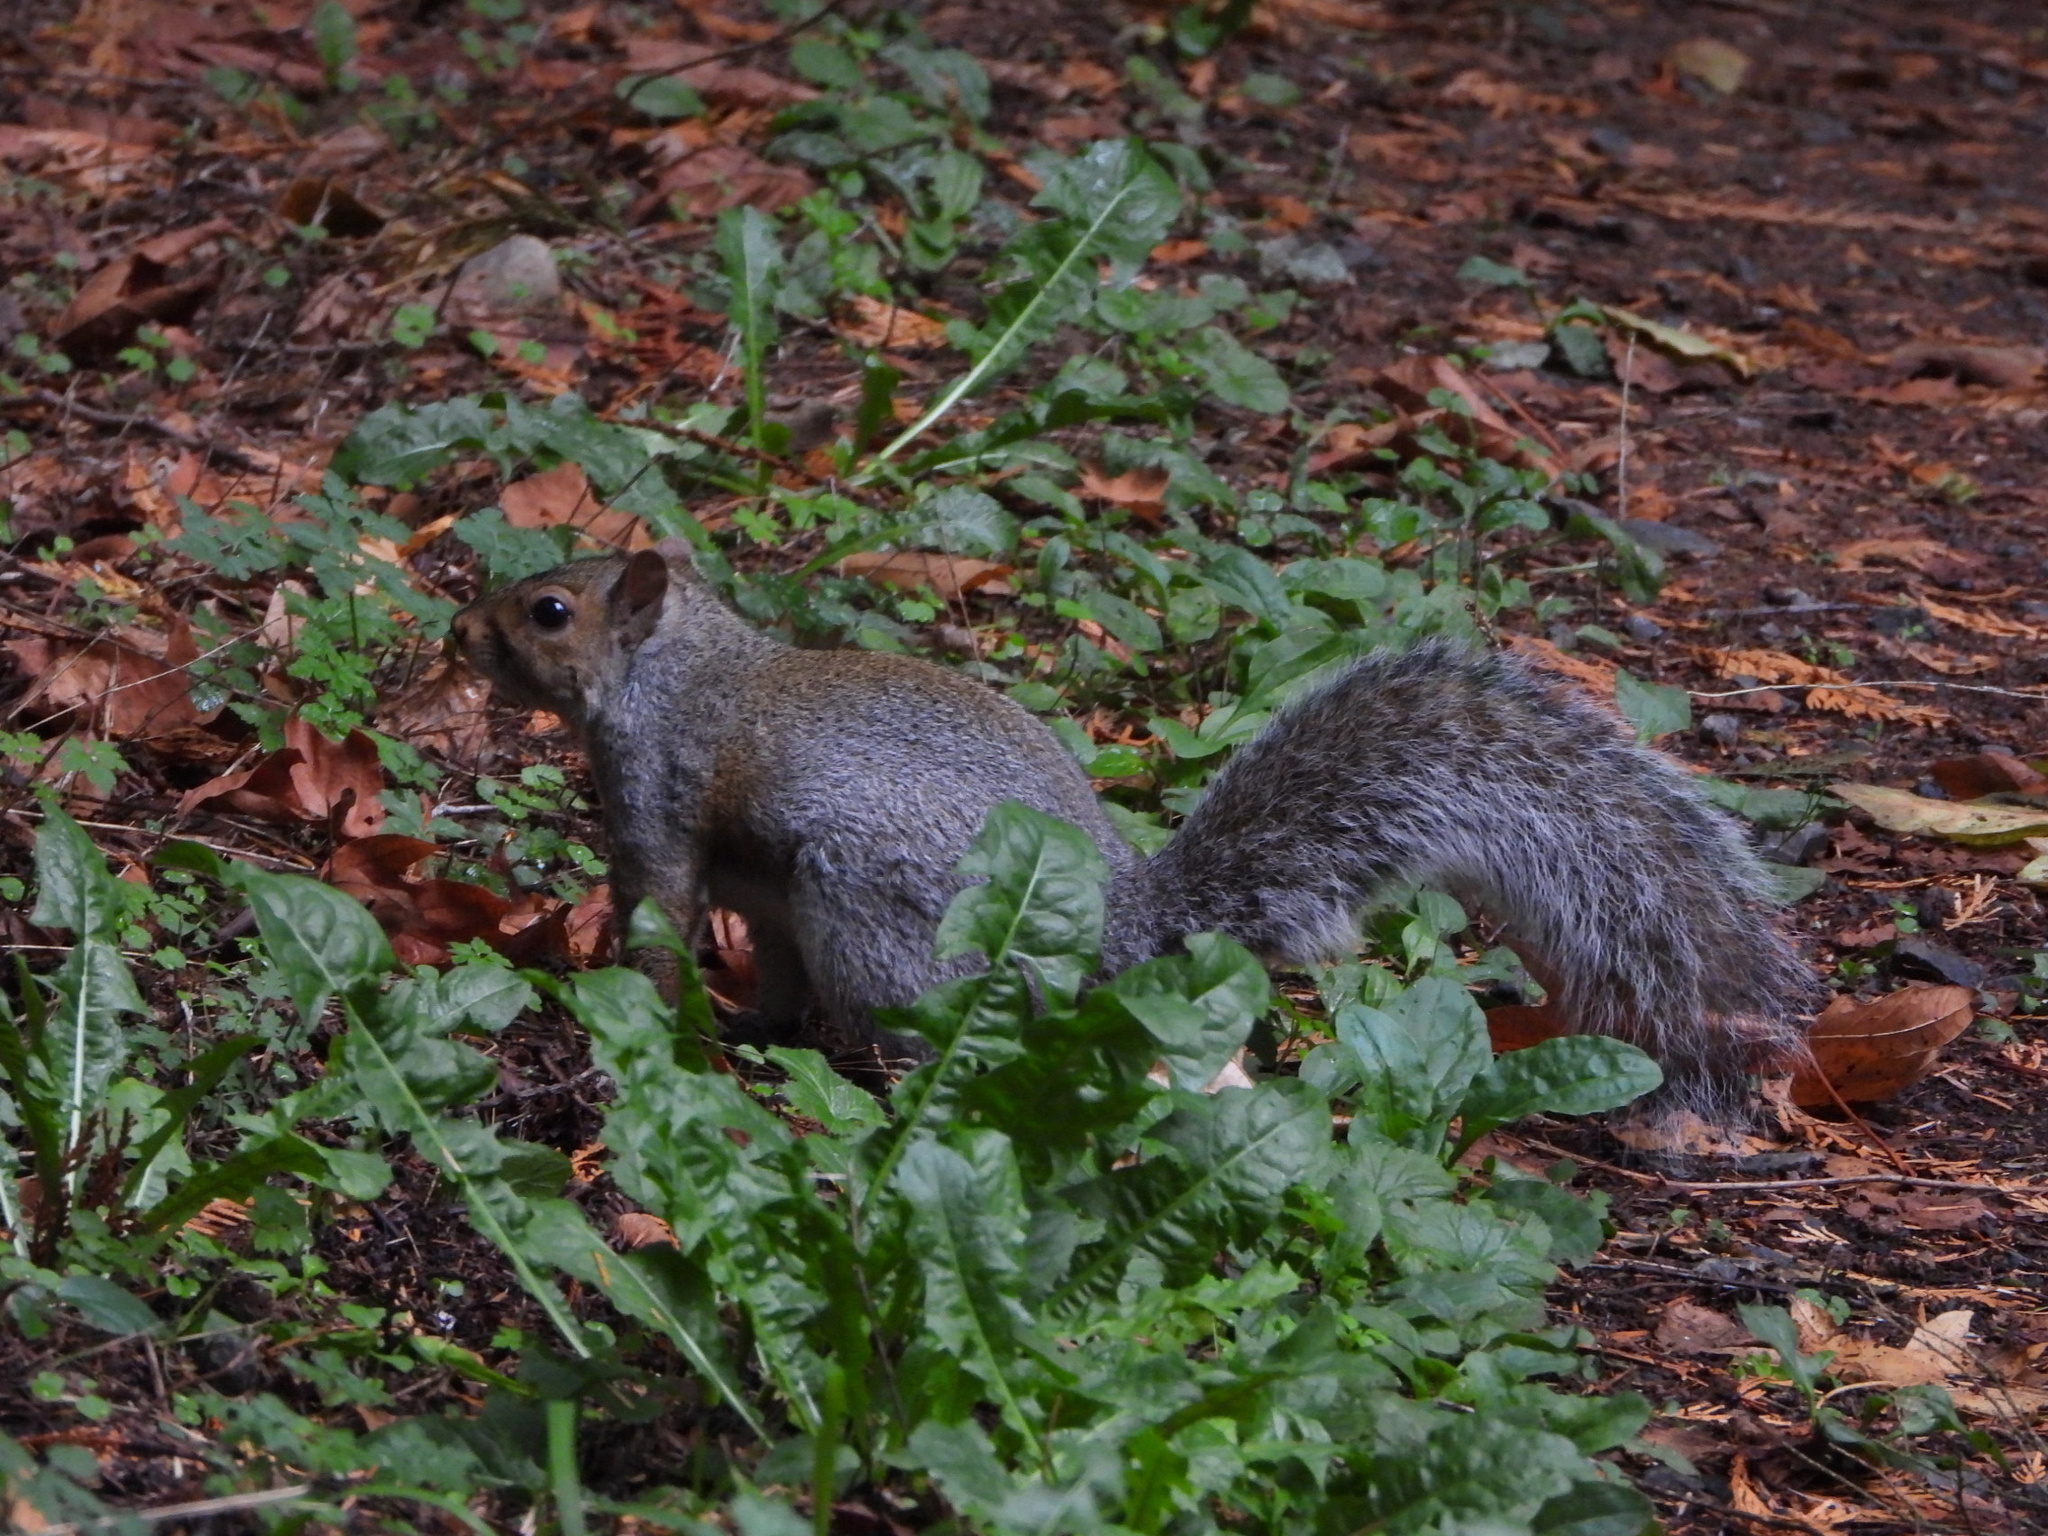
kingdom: Animalia
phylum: Chordata
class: Mammalia
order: Rodentia
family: Sciuridae
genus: Sciurus
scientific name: Sciurus carolinensis
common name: Eastern gray squirrel
